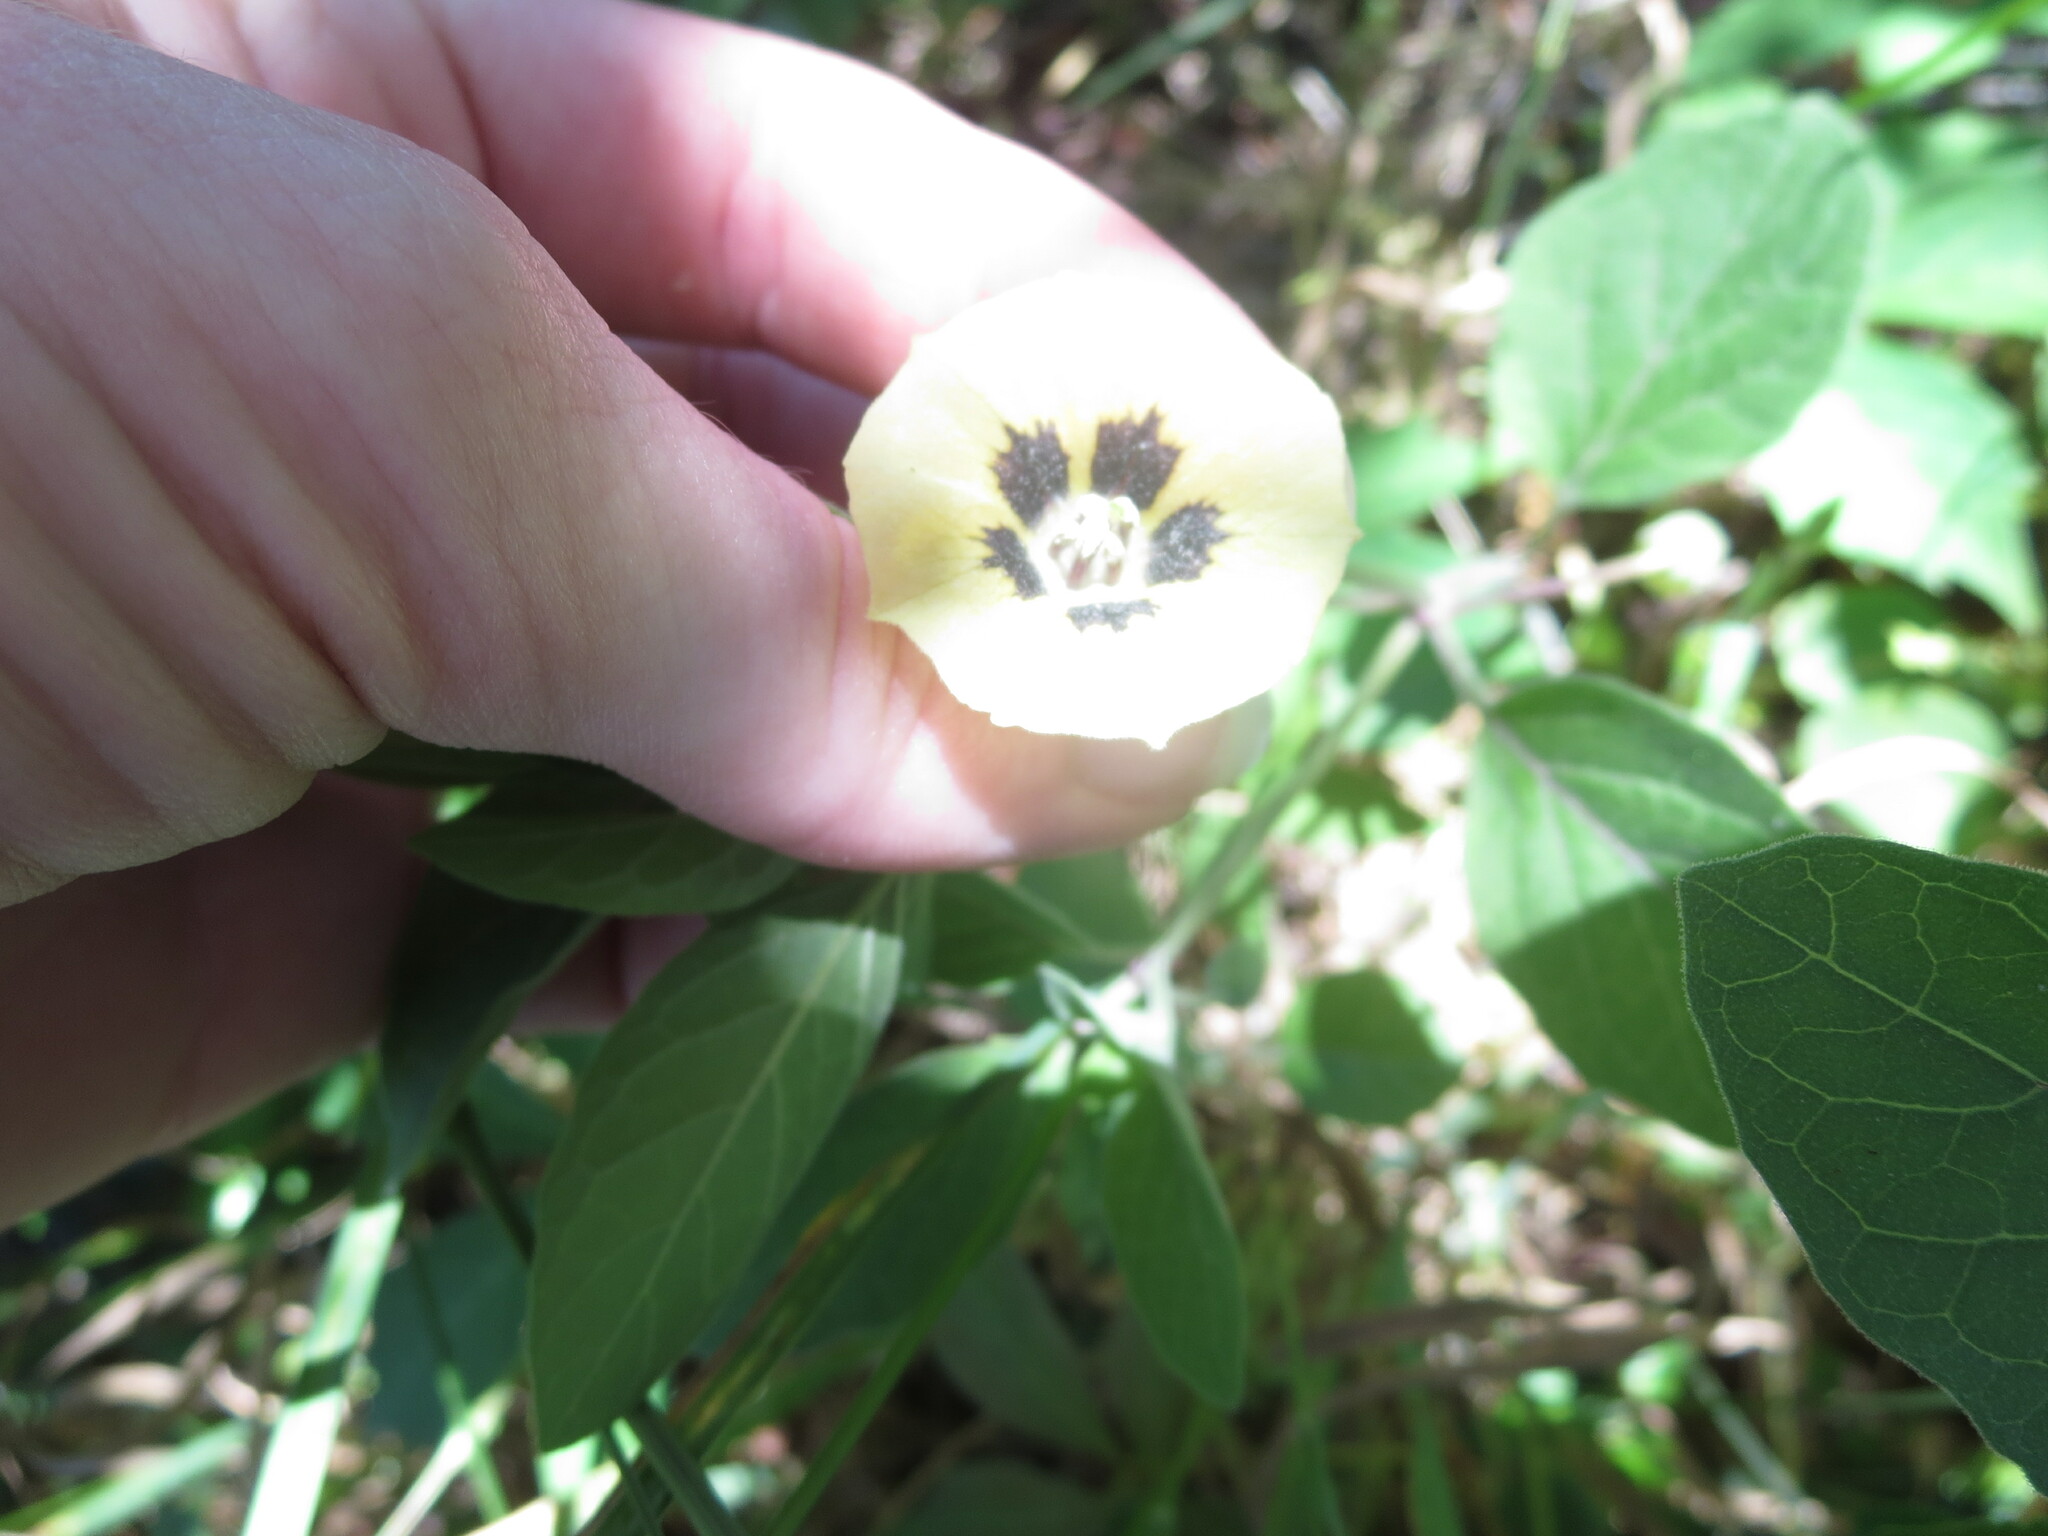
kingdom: Plantae
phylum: Tracheophyta
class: Magnoliopsida
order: Solanales
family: Solanaceae
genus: Physalis
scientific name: Physalis walteri
